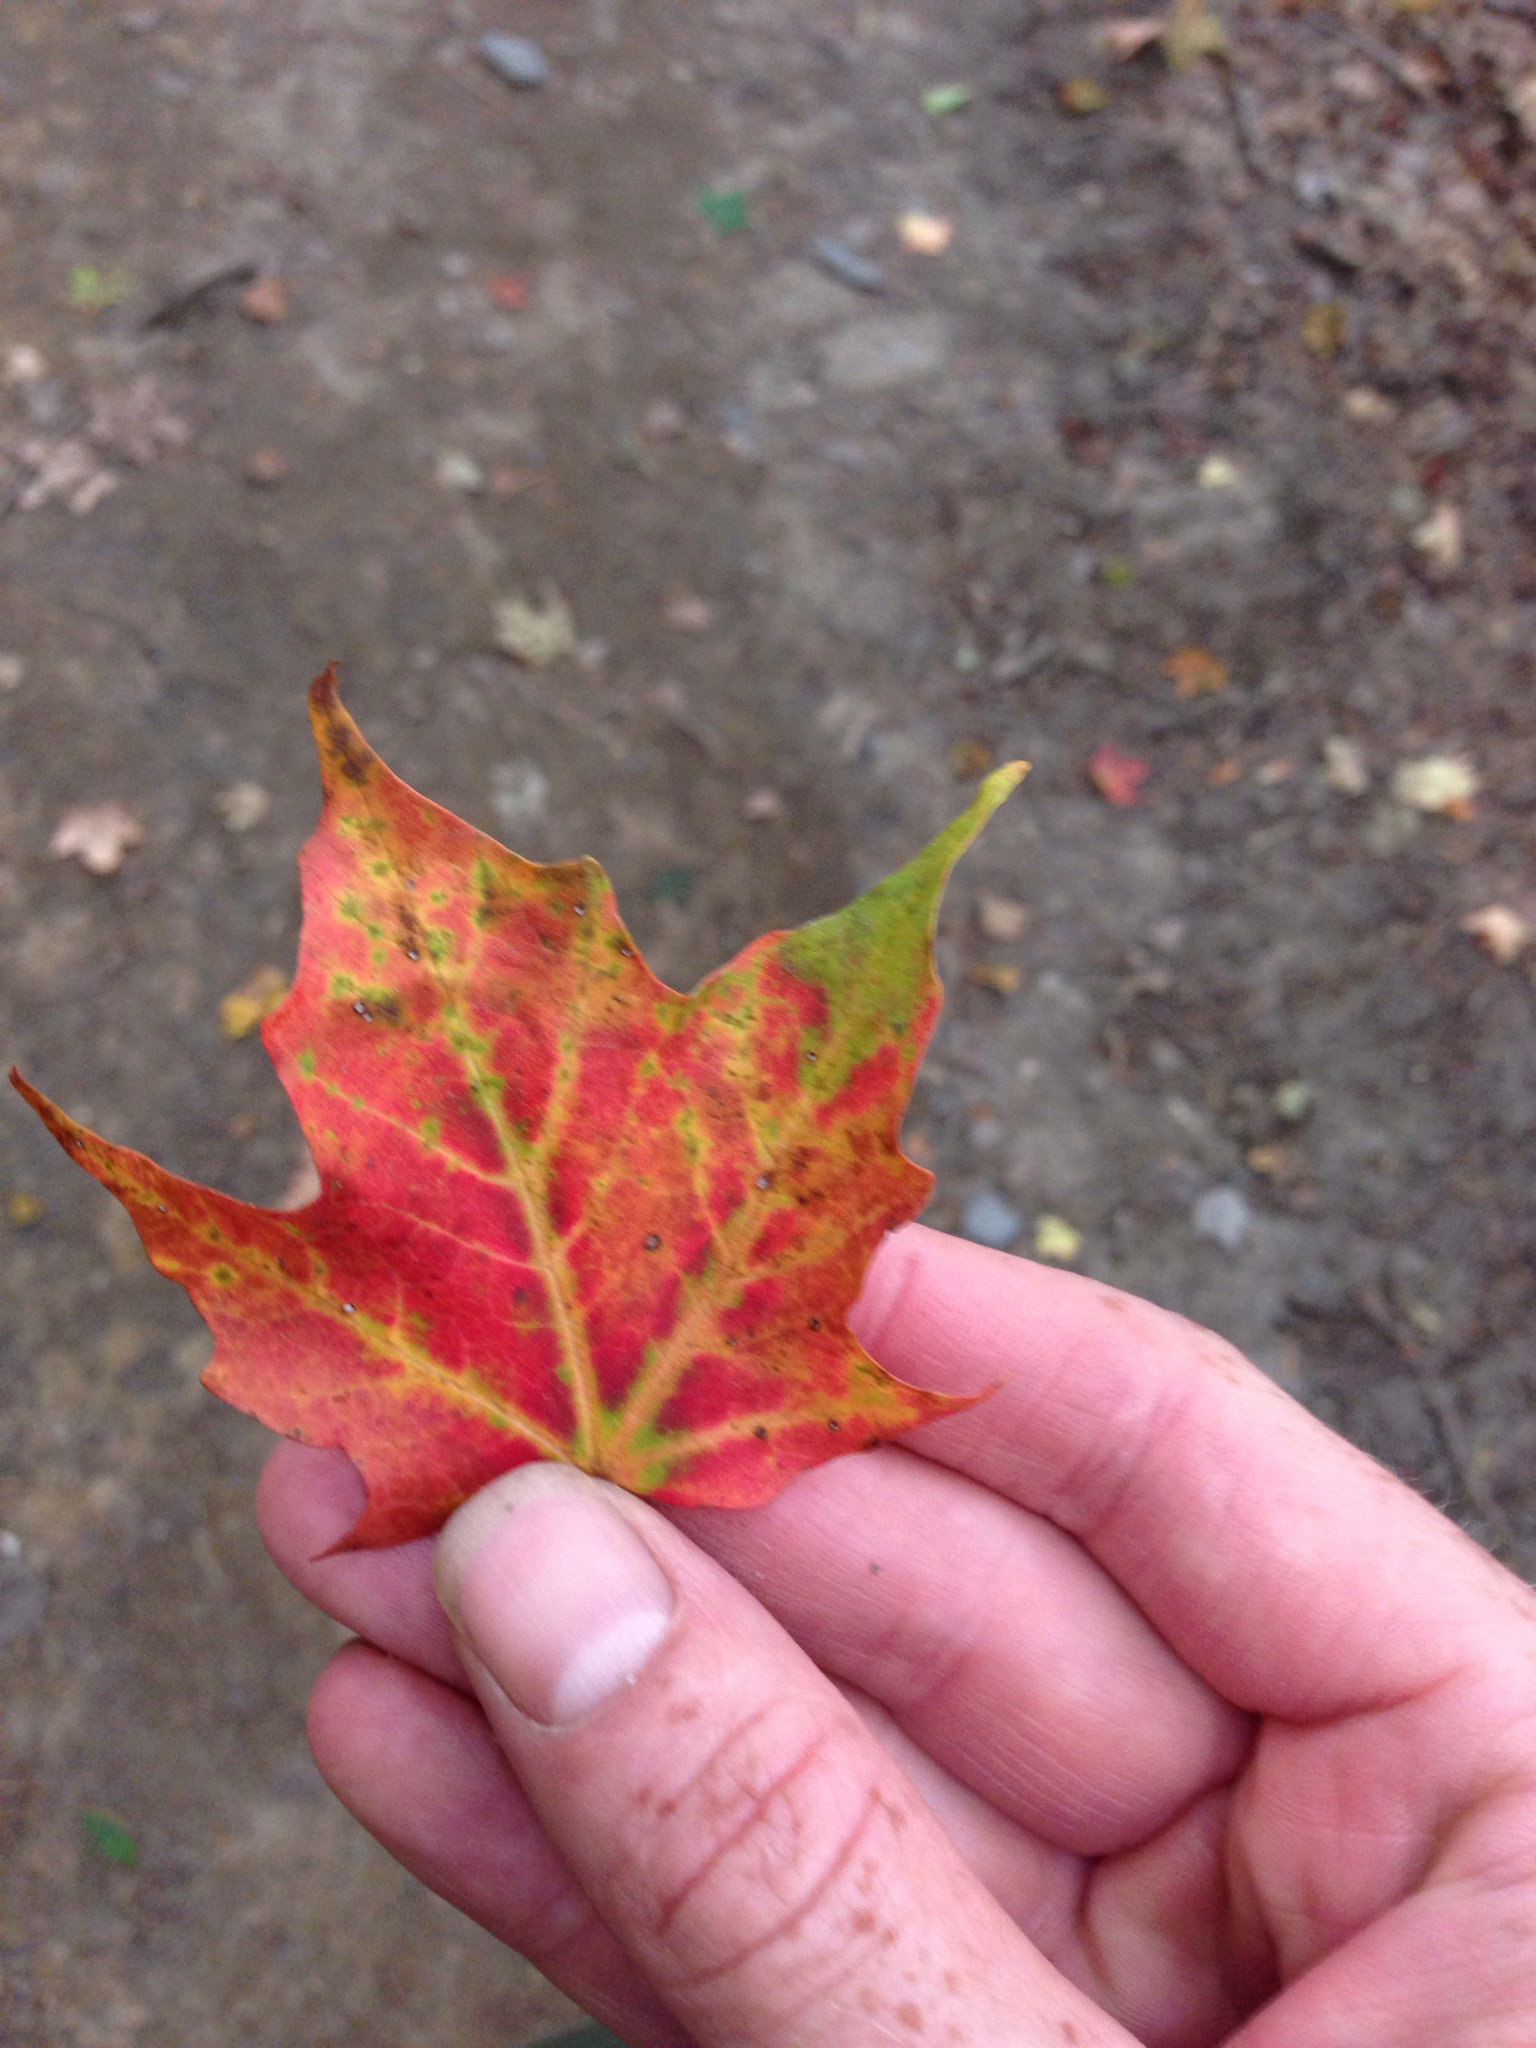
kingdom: Plantae
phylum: Tracheophyta
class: Magnoliopsida
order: Sapindales
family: Sapindaceae
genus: Acer
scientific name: Acer saccharum
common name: Sugar maple
